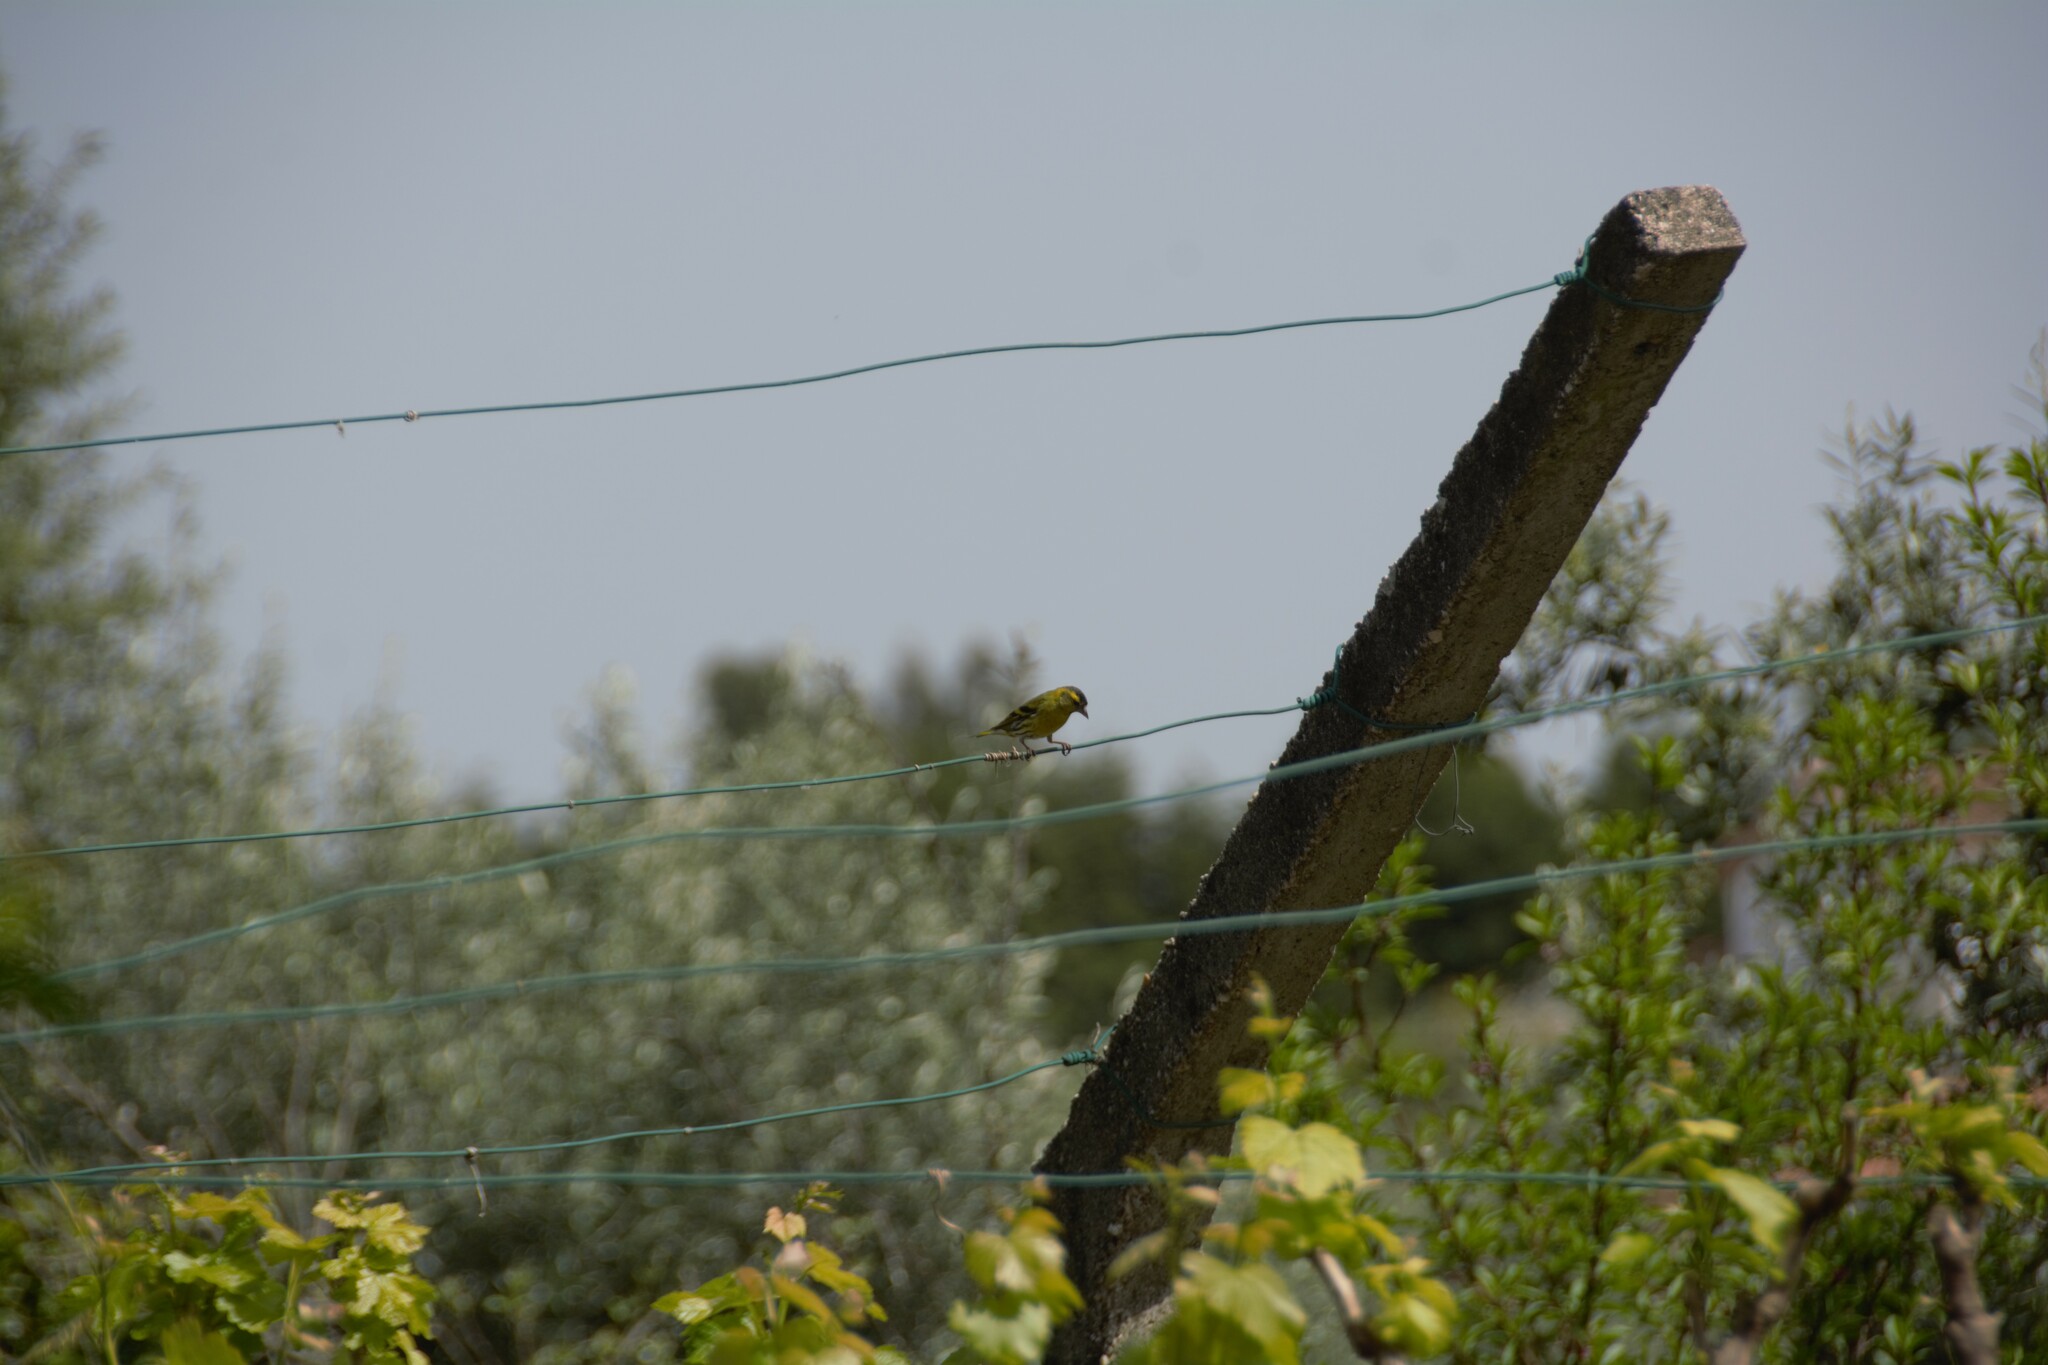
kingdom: Animalia
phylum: Chordata
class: Aves
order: Passeriformes
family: Fringillidae
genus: Spinus
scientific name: Spinus spinus
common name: Eurasian siskin
